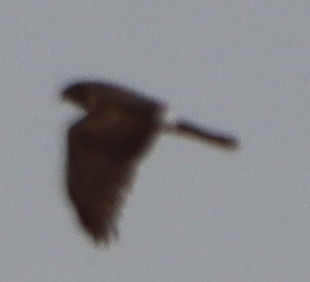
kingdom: Animalia
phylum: Chordata
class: Aves
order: Accipitriformes
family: Accipitridae
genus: Circus
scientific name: Circus cyaneus
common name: Hen harrier
